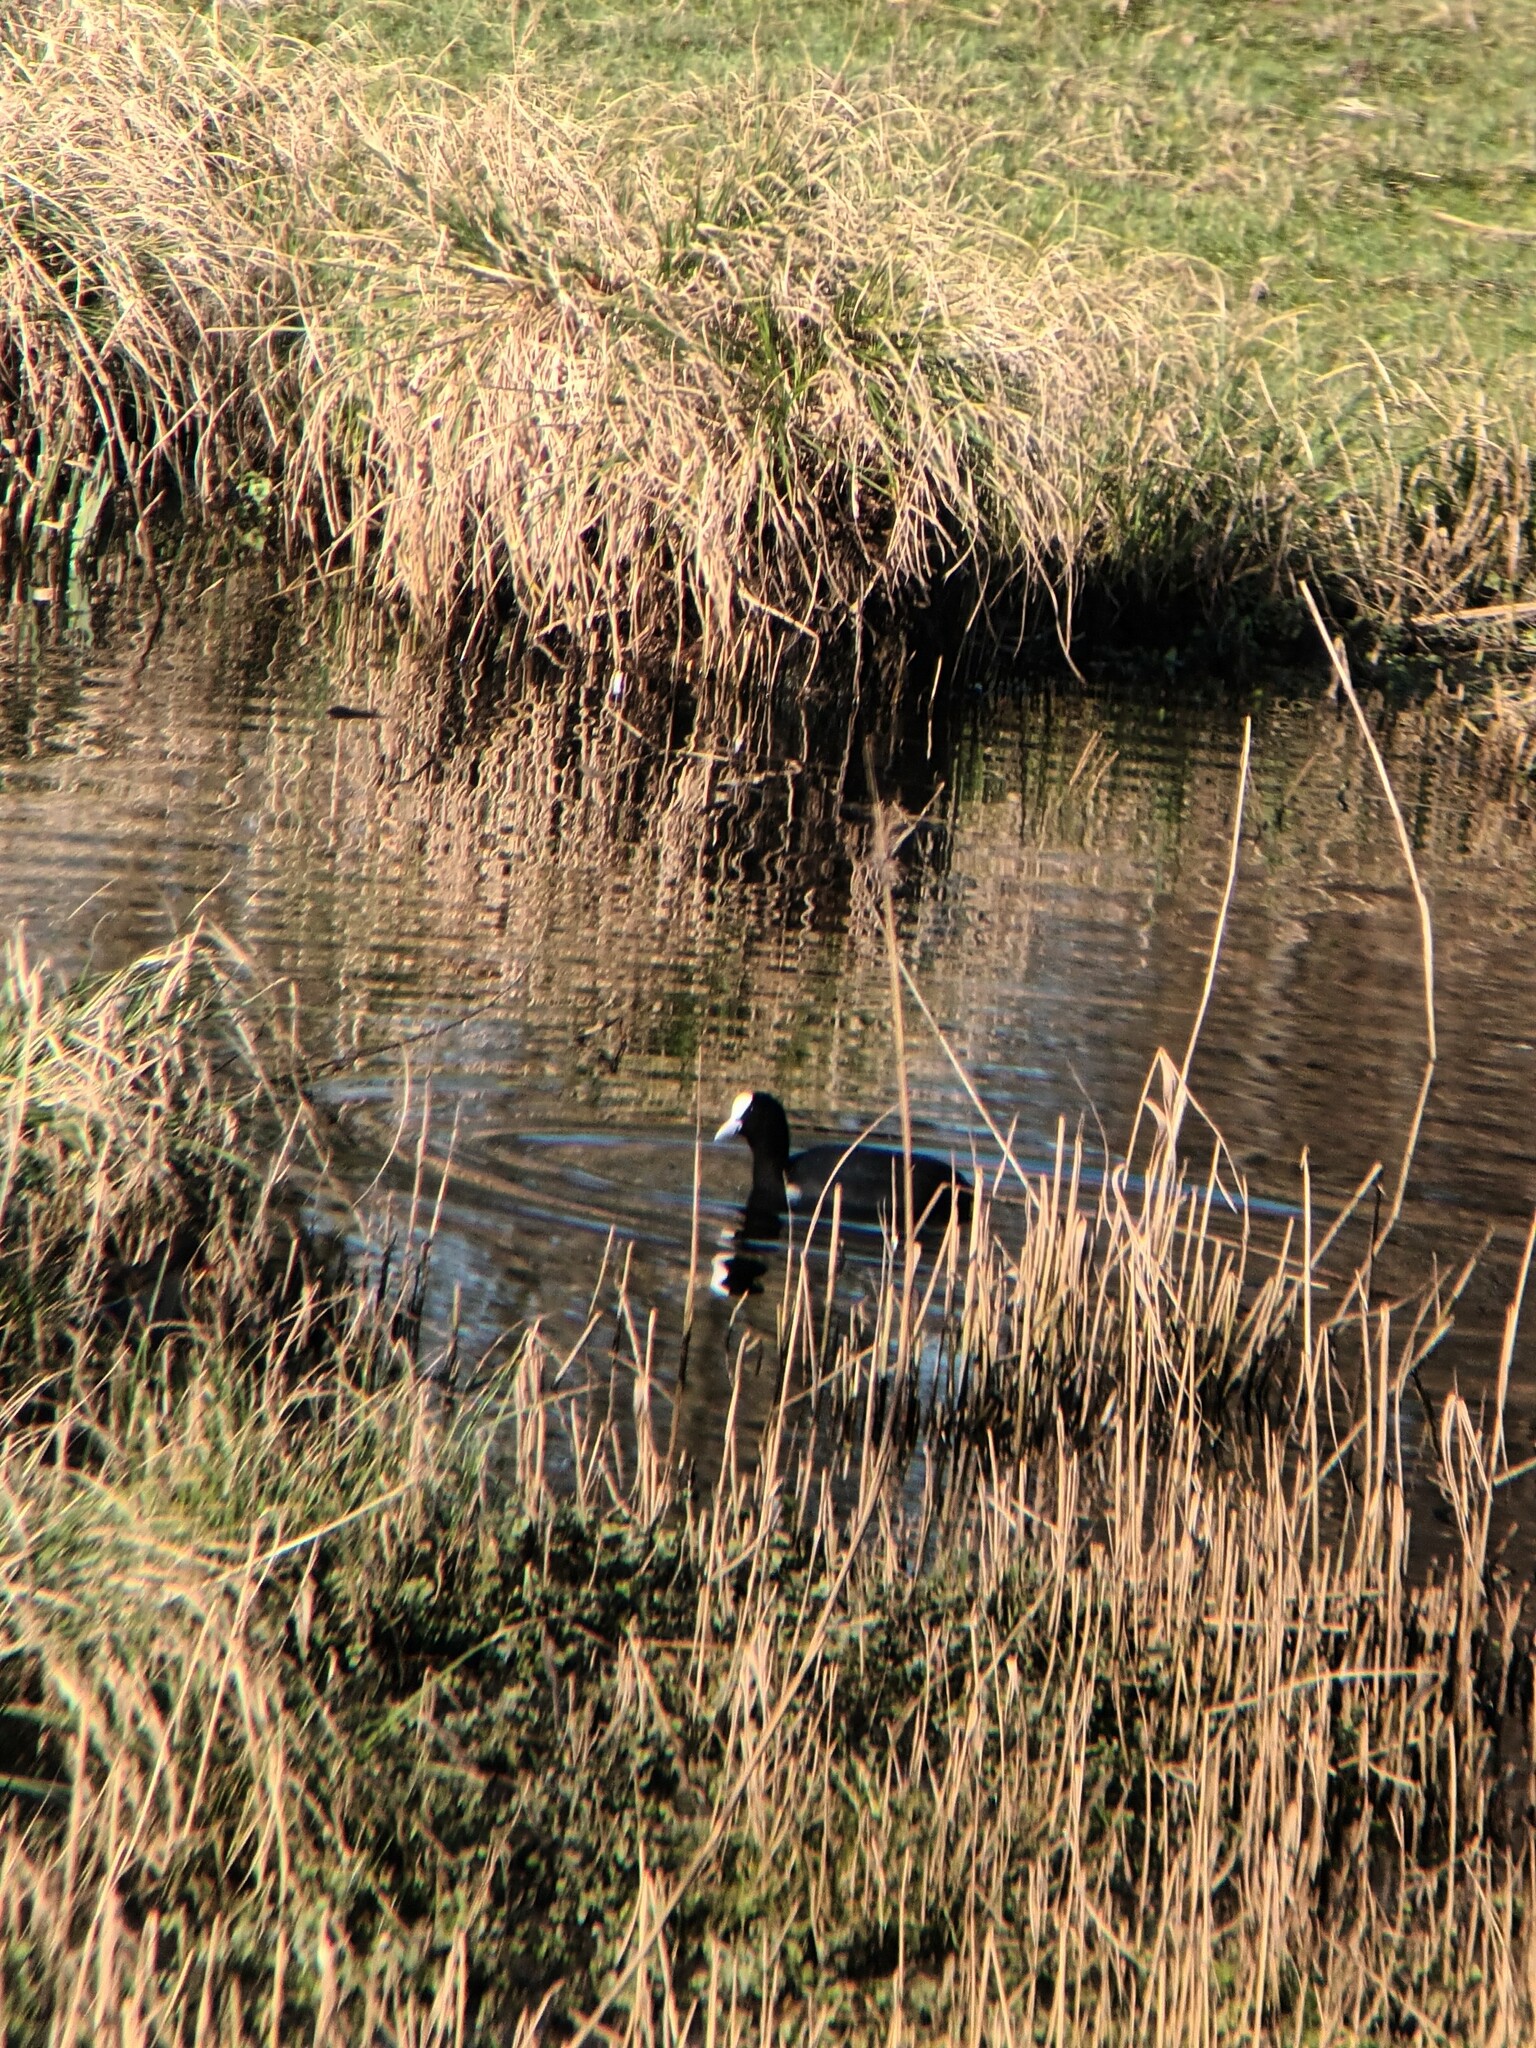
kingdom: Animalia
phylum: Chordata
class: Aves
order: Gruiformes
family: Rallidae
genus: Fulica
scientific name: Fulica atra
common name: Eurasian coot
